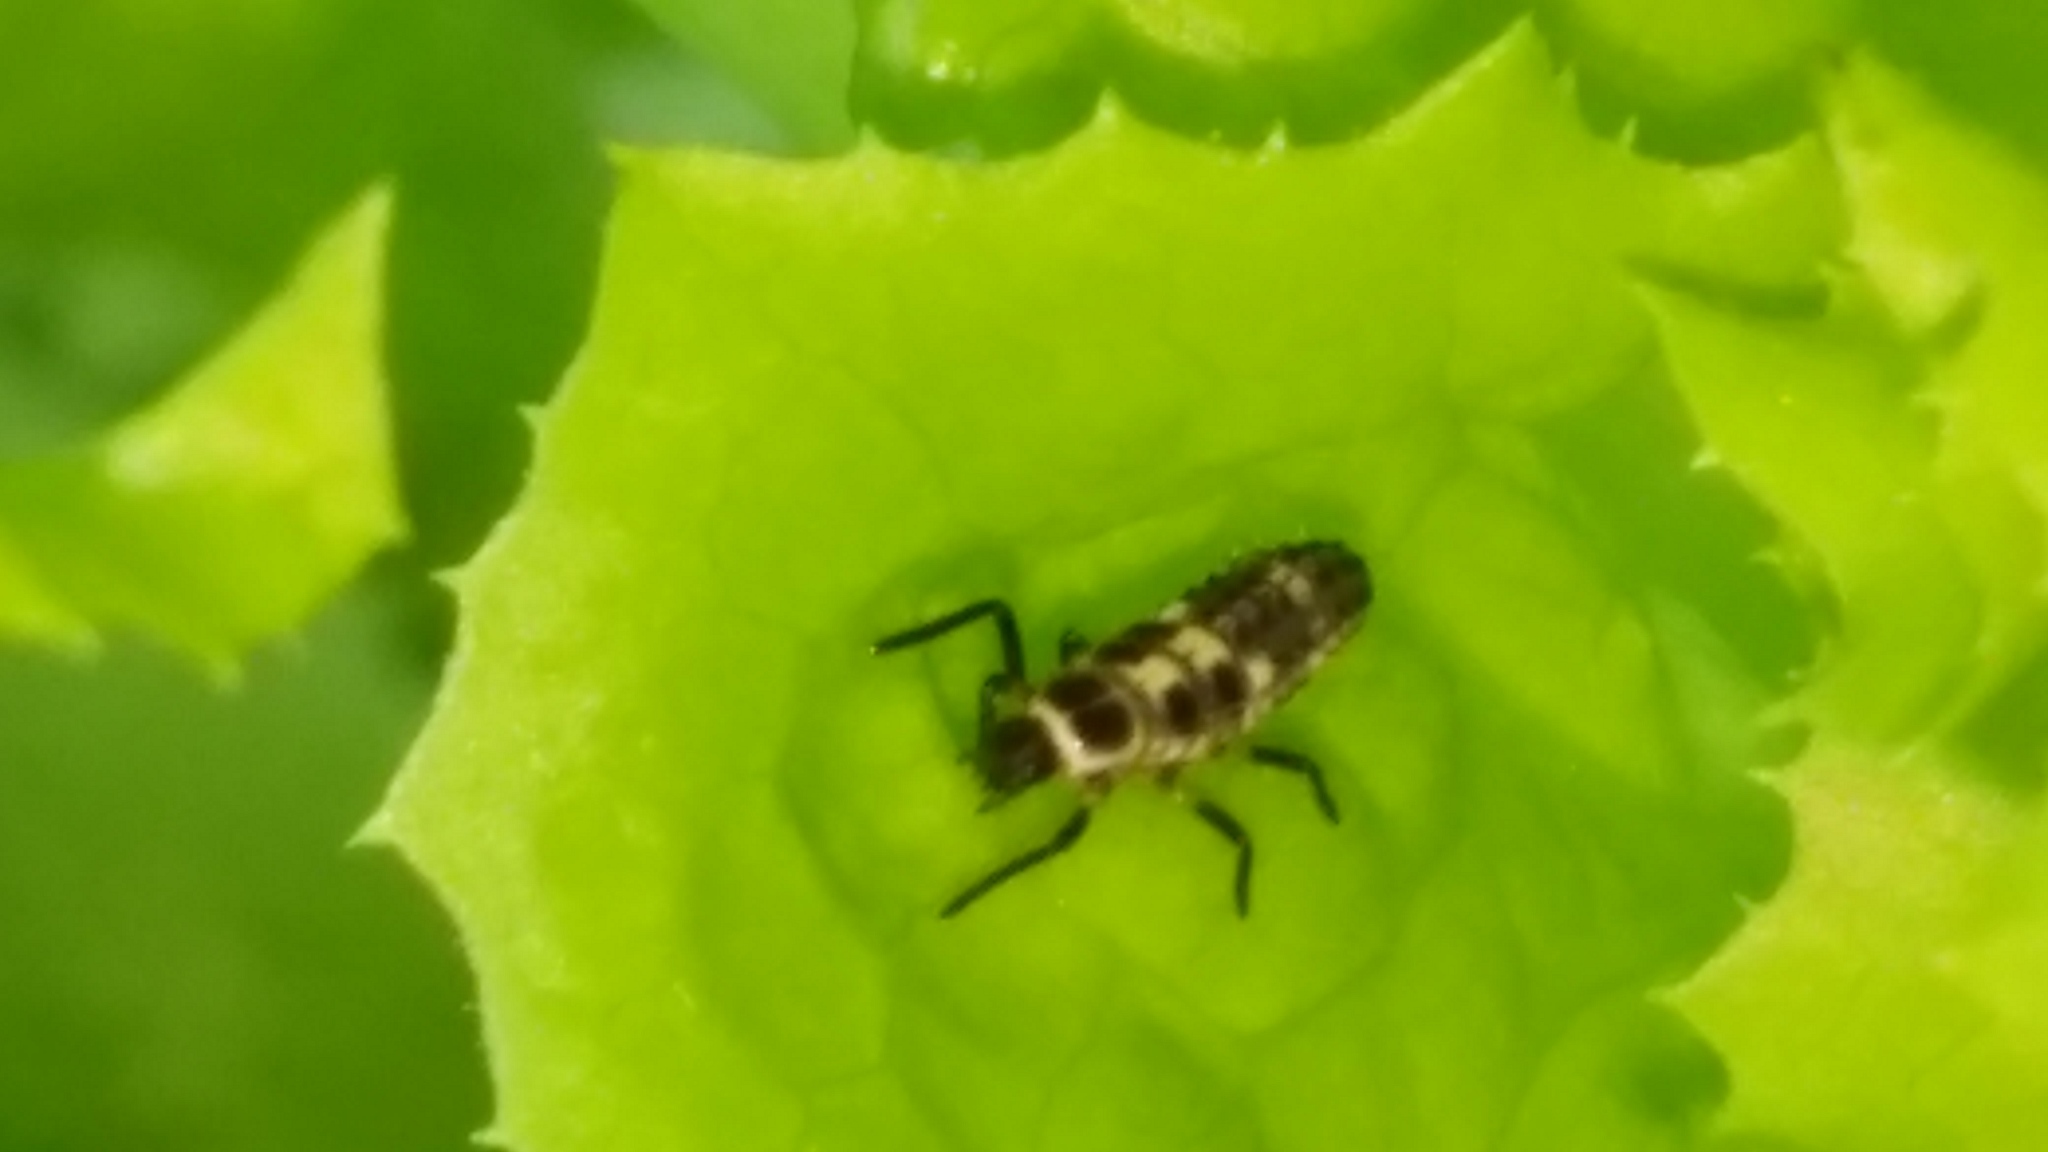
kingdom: Animalia
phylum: Arthropoda
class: Insecta
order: Coleoptera
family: Coccinellidae
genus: Propylaea
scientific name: Propylaea quatuordecimpunctata
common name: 14-spotted ladybird beetle
